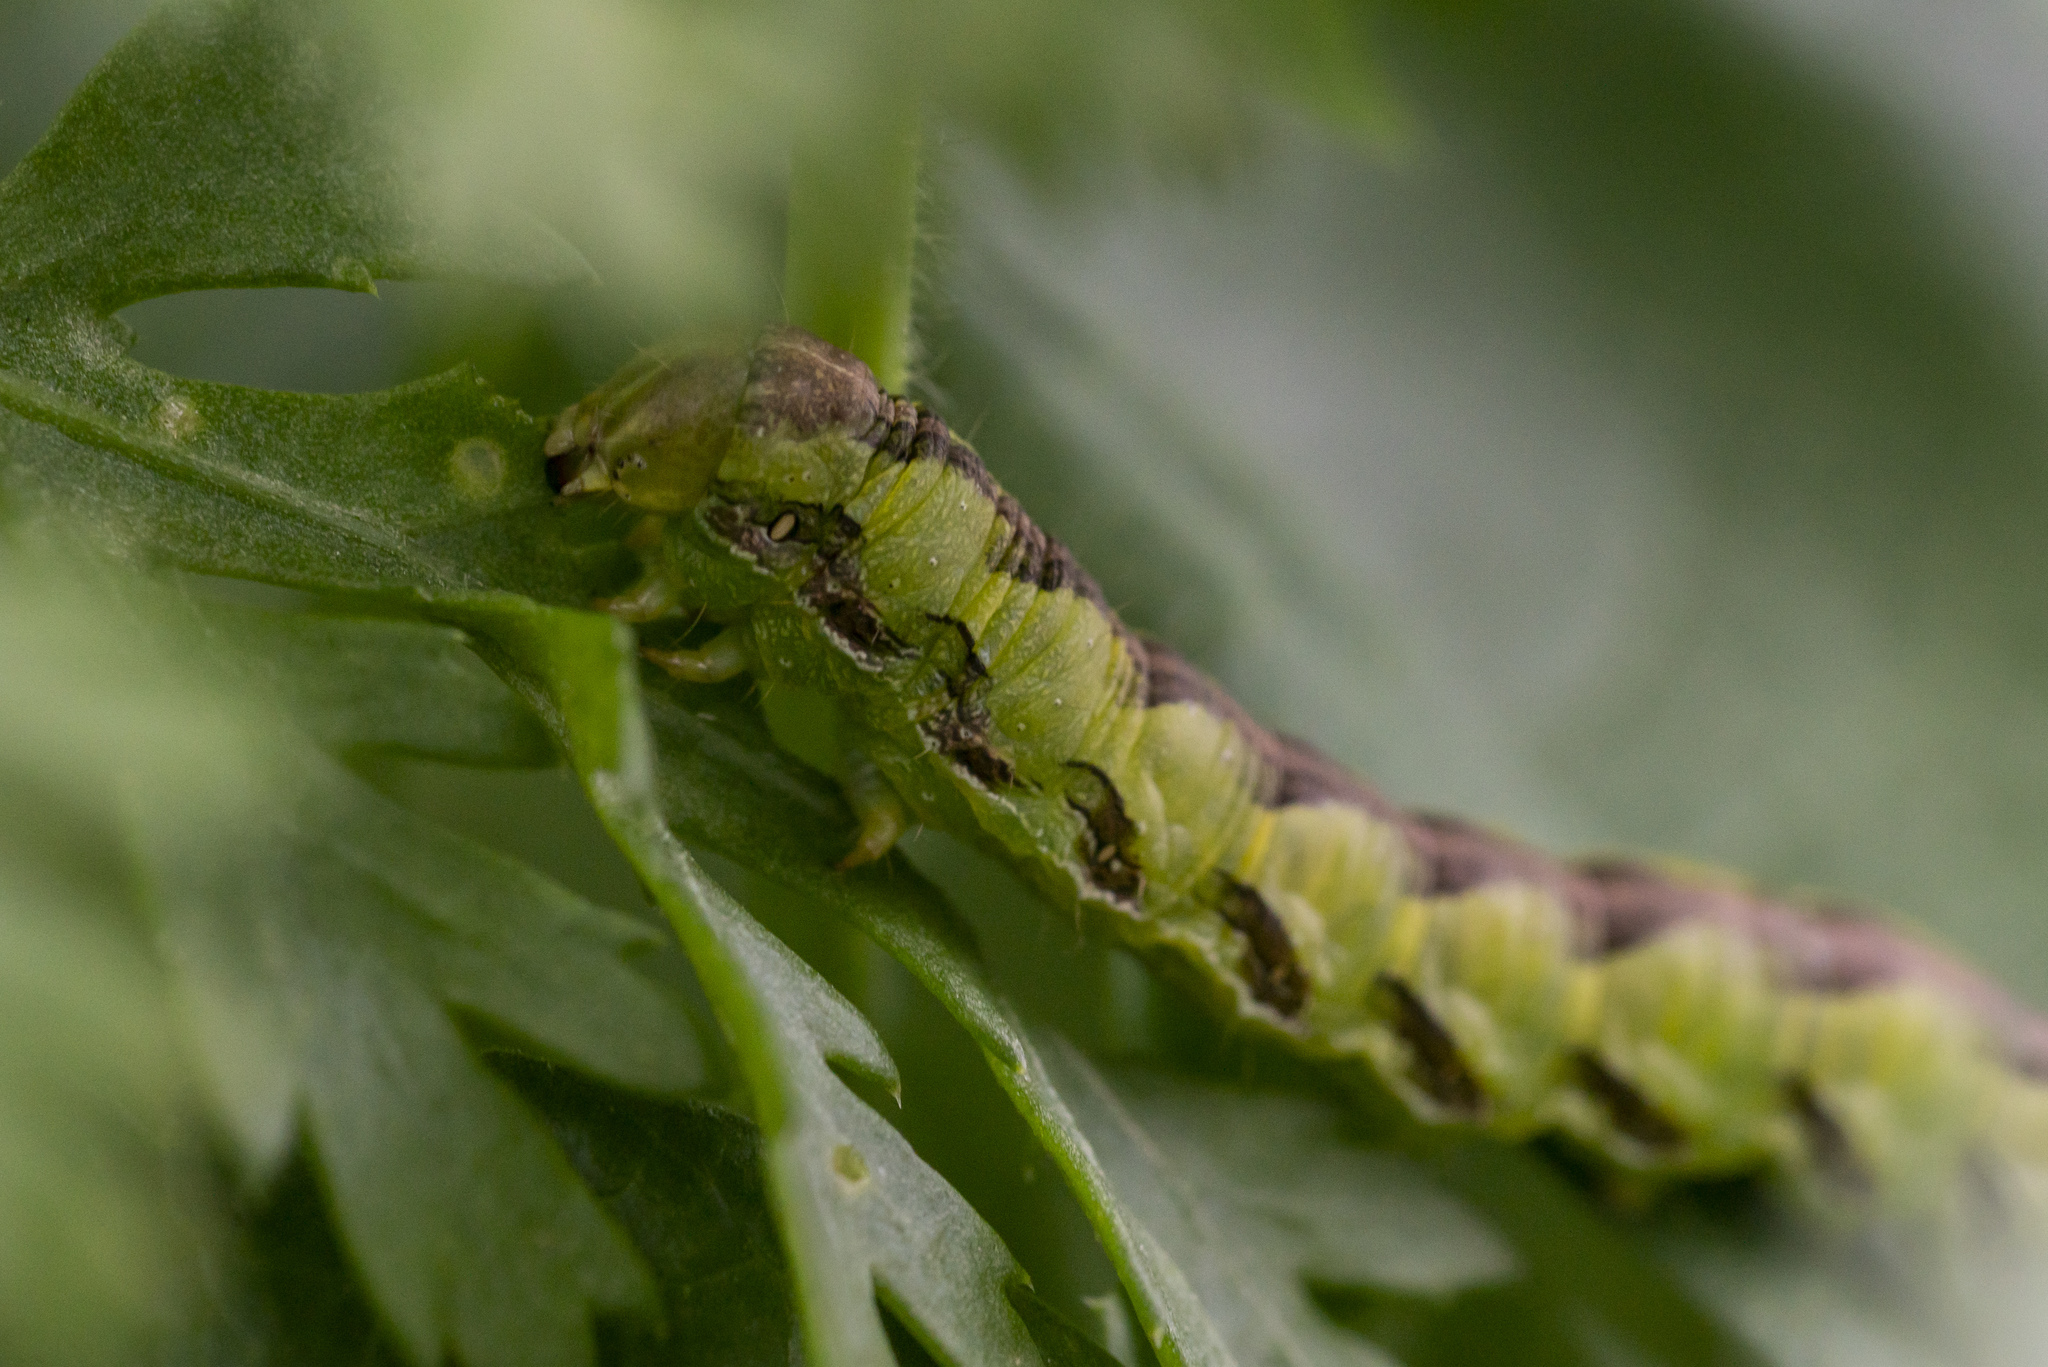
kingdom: Animalia
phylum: Arthropoda
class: Insecta
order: Lepidoptera
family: Noctuidae
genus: Cucullia
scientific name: Cucullia calendulae
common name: Marigold shark
